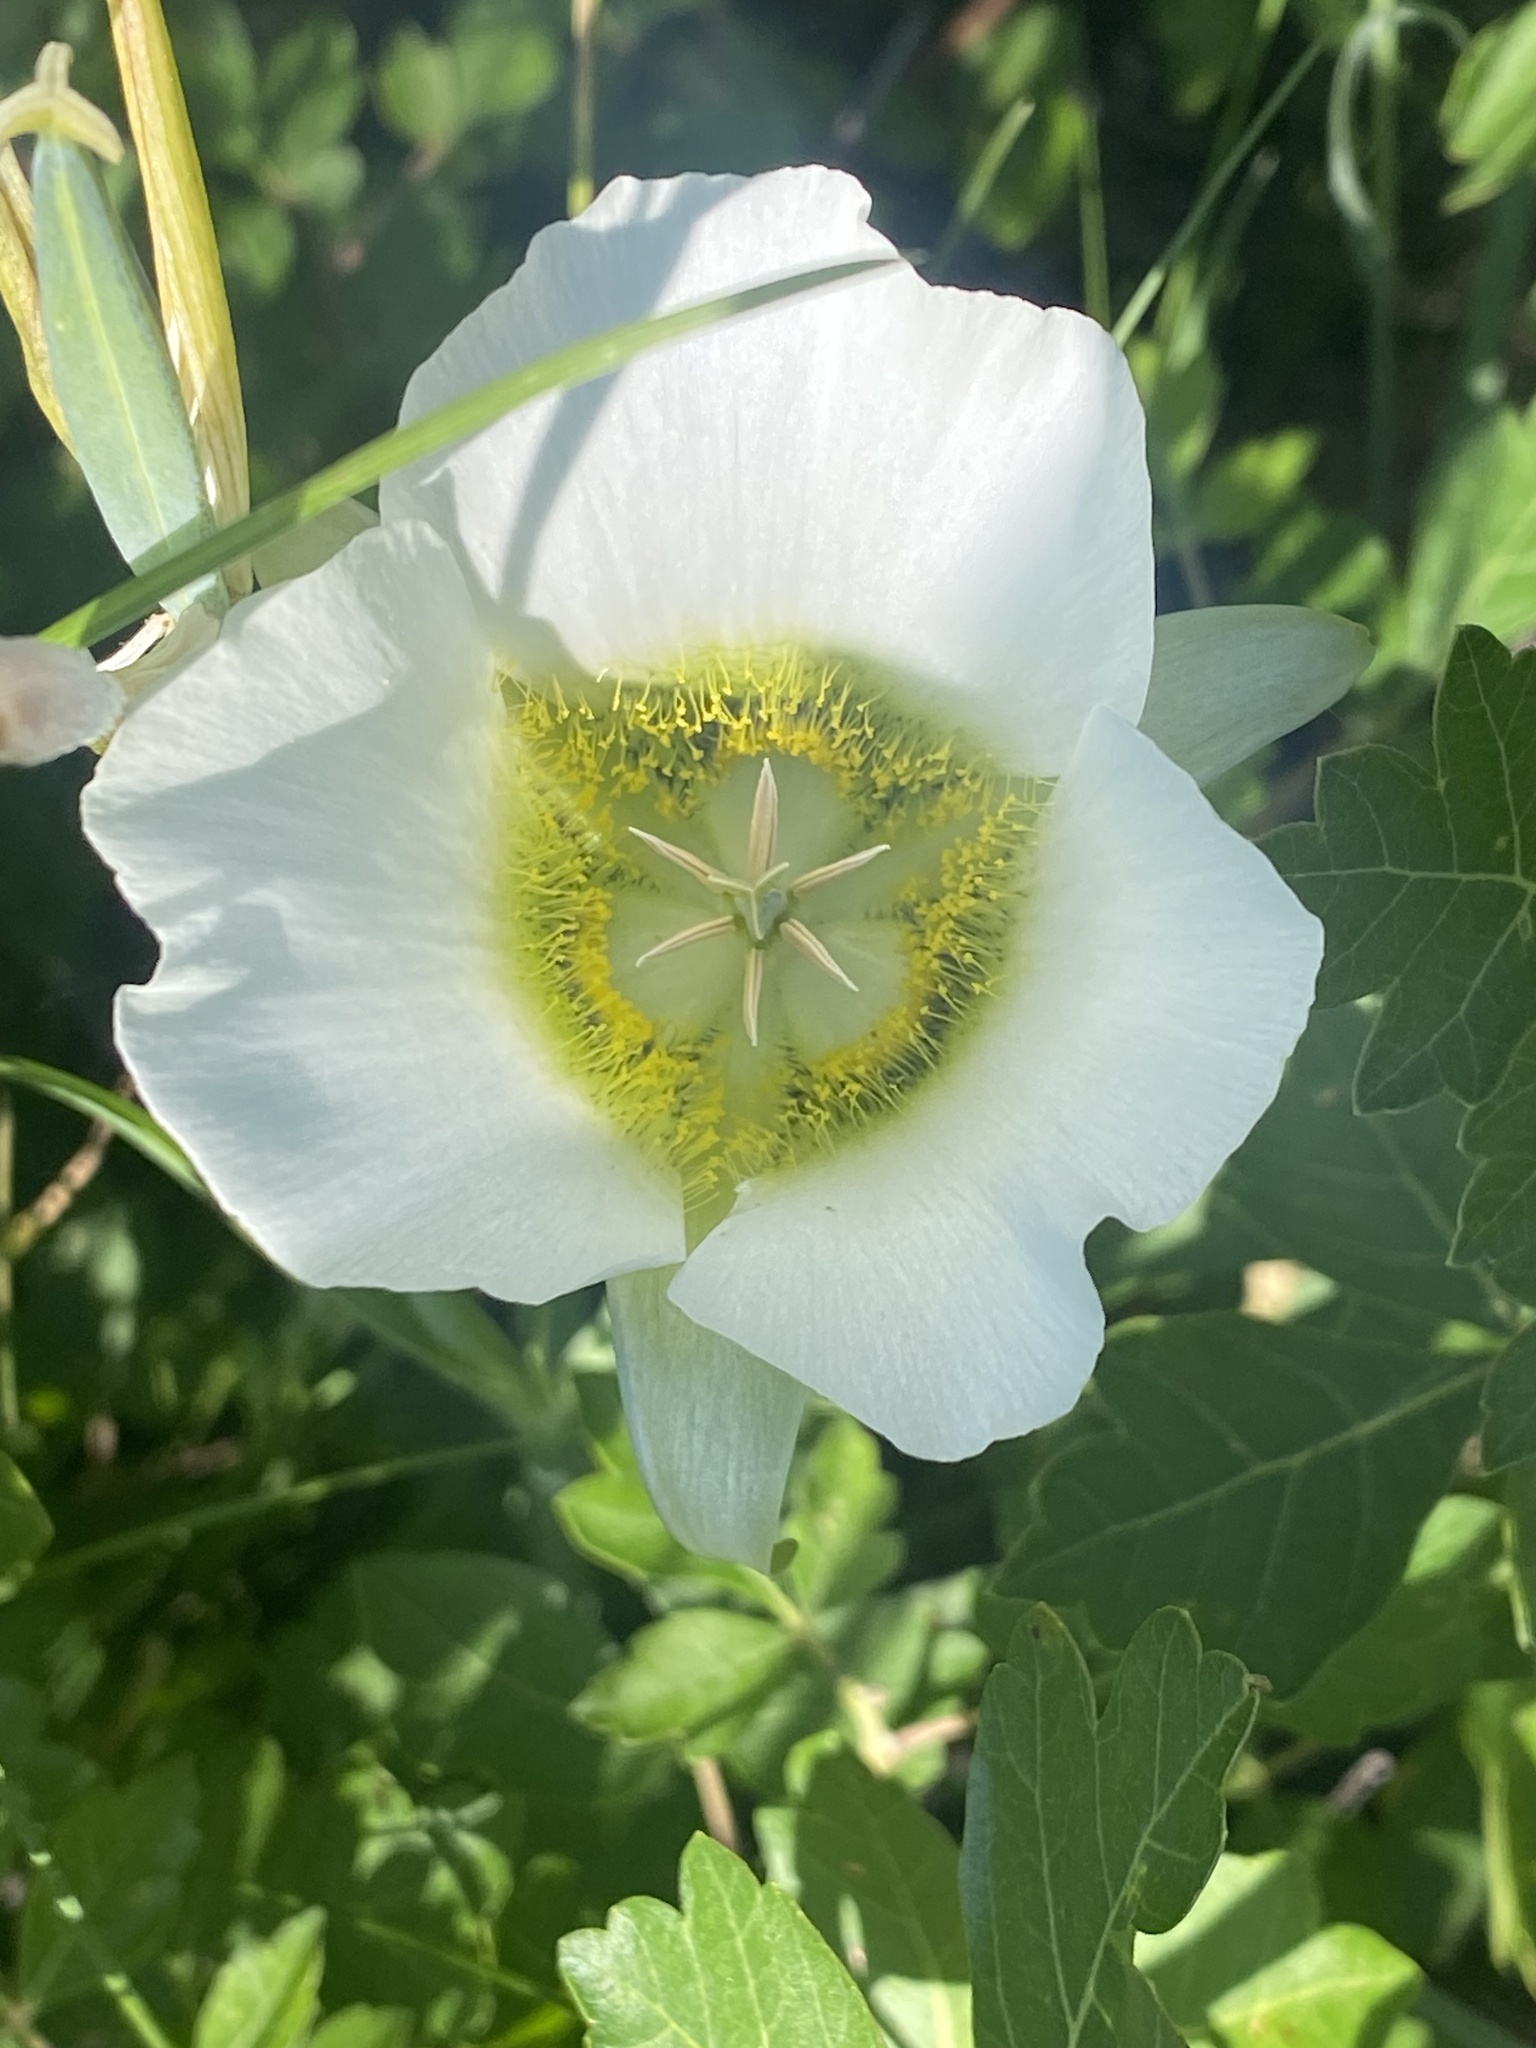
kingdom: Plantae
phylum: Tracheophyta
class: Liliopsida
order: Liliales
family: Liliaceae
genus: Calochortus
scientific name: Calochortus gunnisonii
